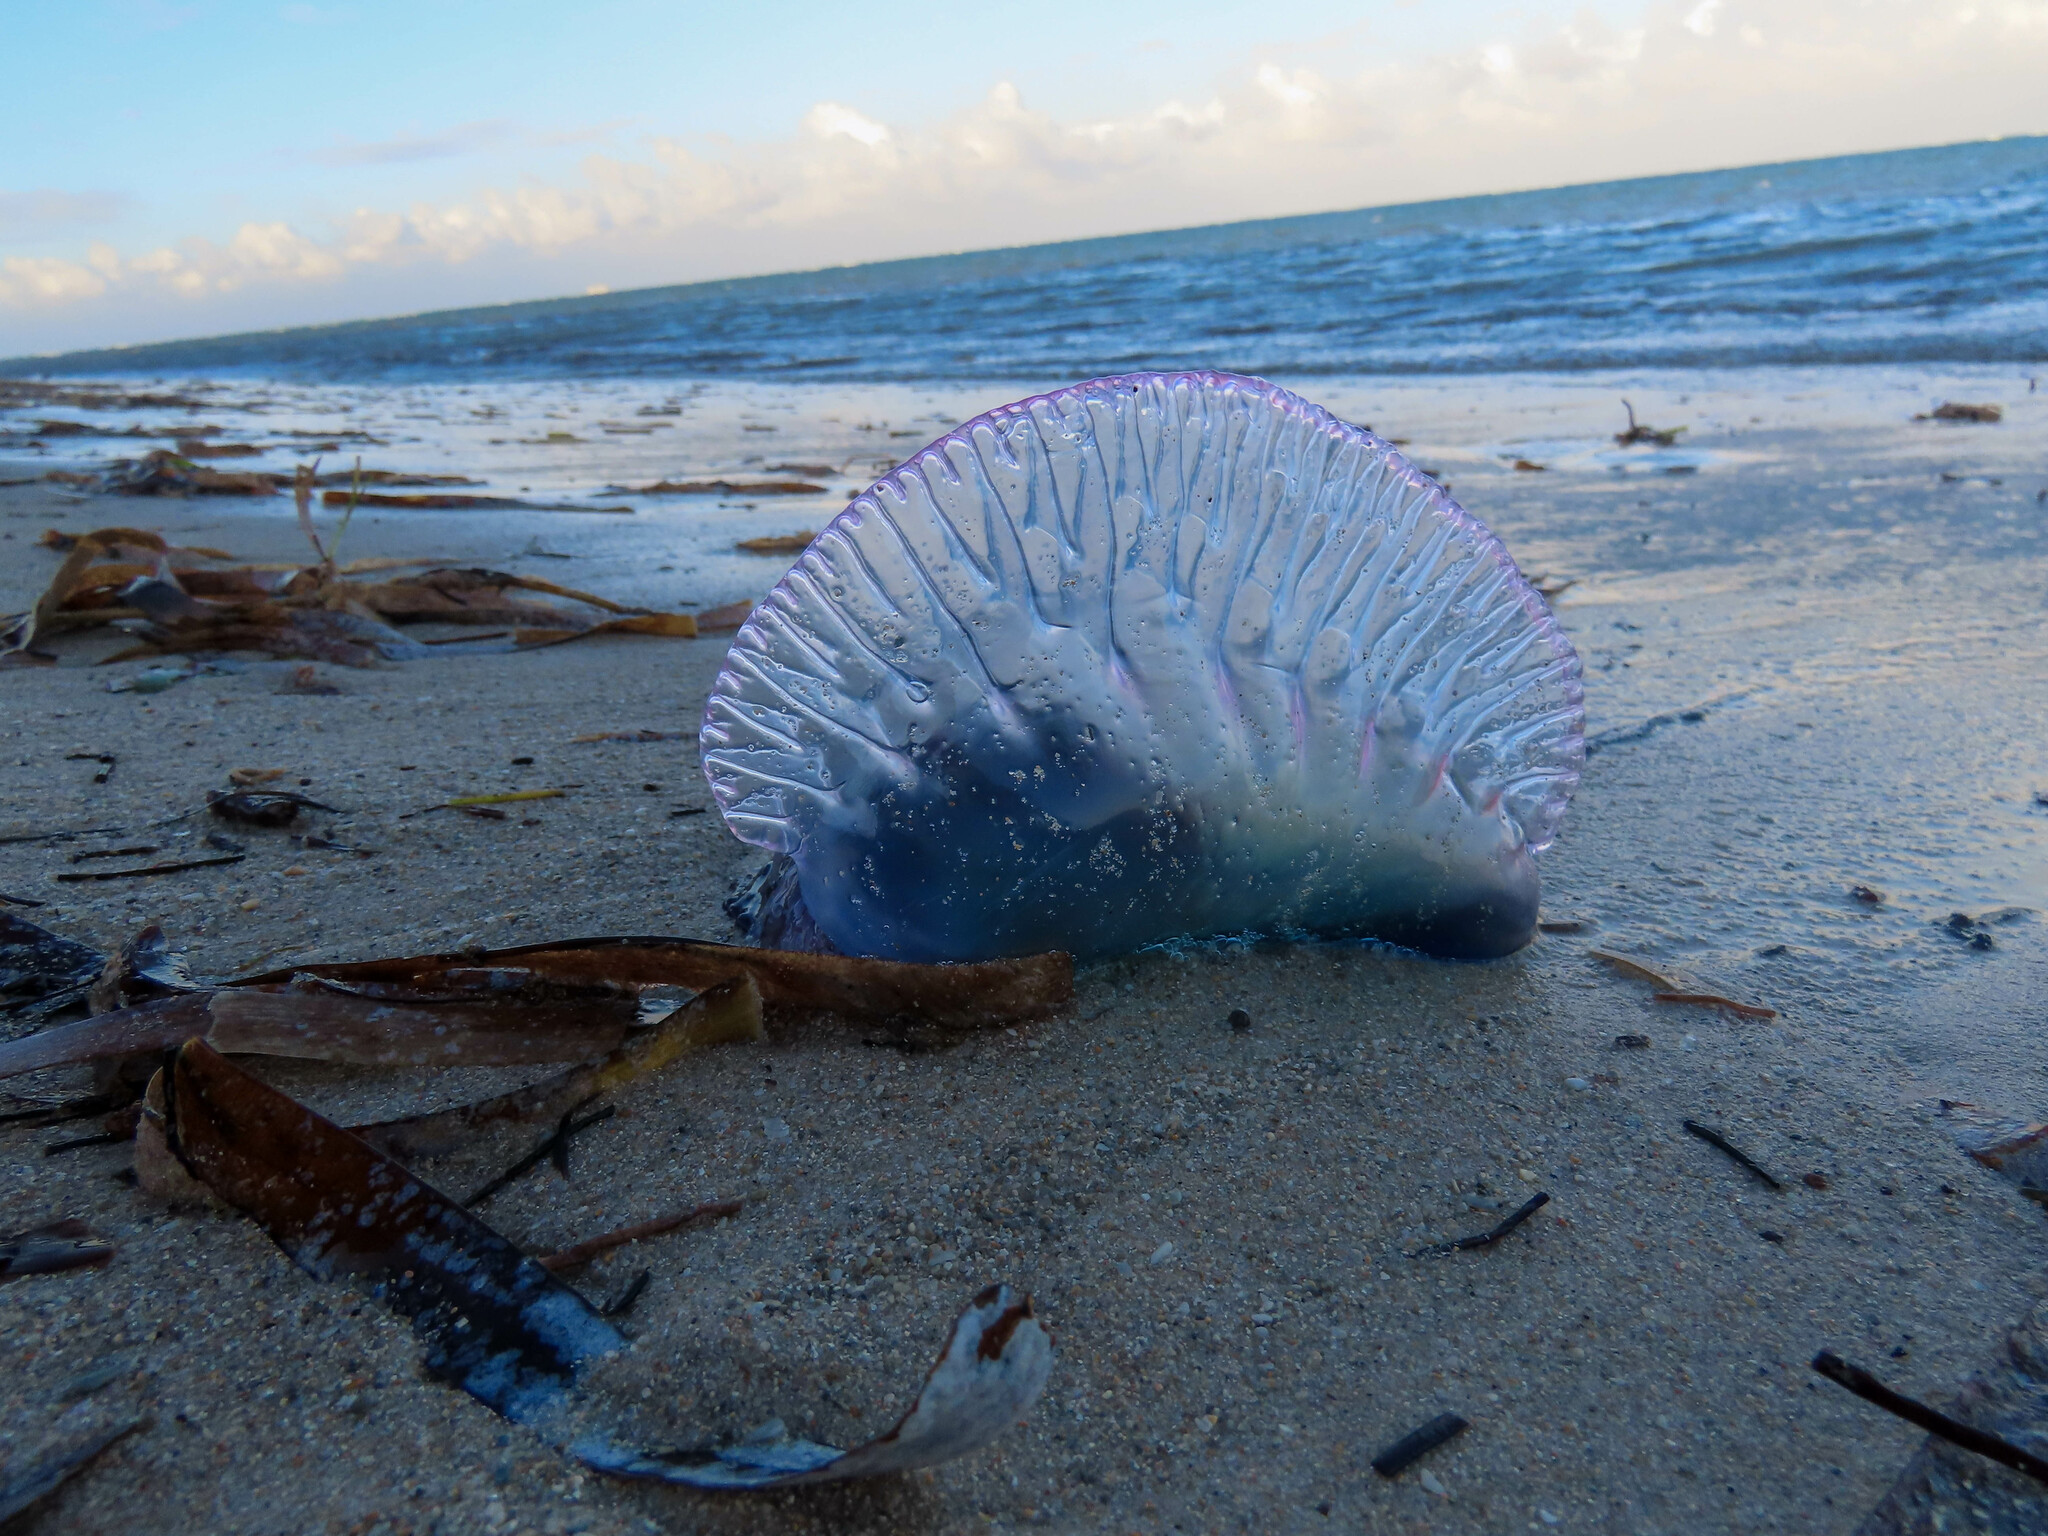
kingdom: Animalia
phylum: Cnidaria
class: Hydrozoa
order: Siphonophorae
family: Physaliidae
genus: Physalia
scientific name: Physalia physalis
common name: Portuguese man-of-war
